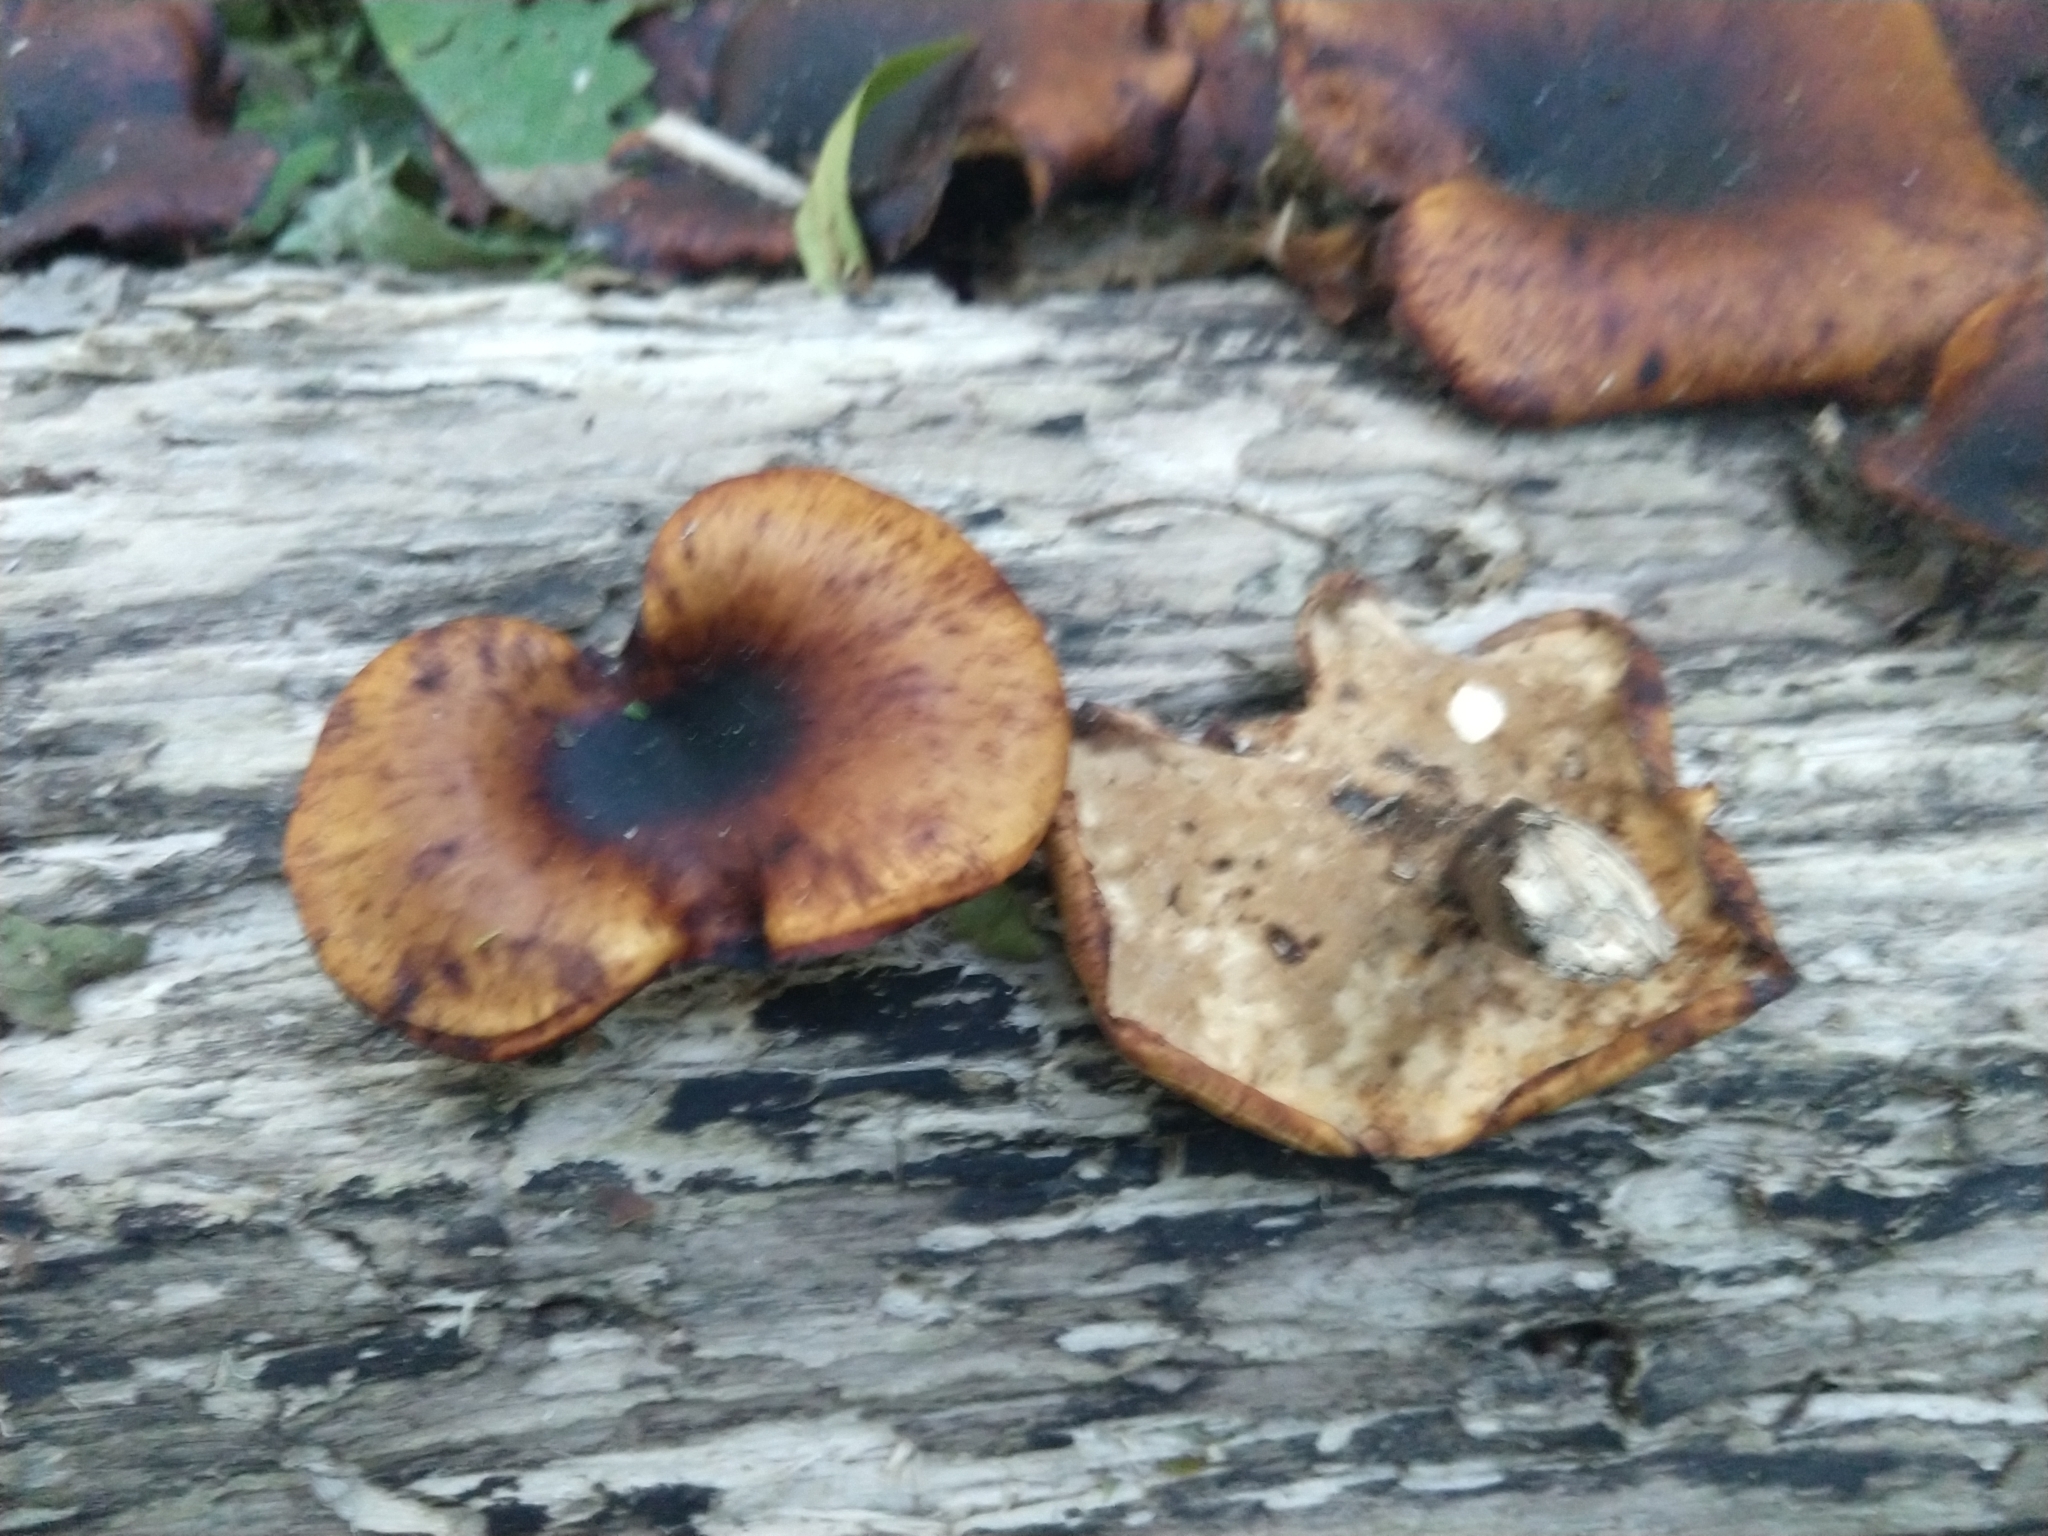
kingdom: Fungi
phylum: Basidiomycota
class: Agaricomycetes
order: Polyporales
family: Polyporaceae
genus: Picipes
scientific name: Picipes badius
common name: Bay polypore
